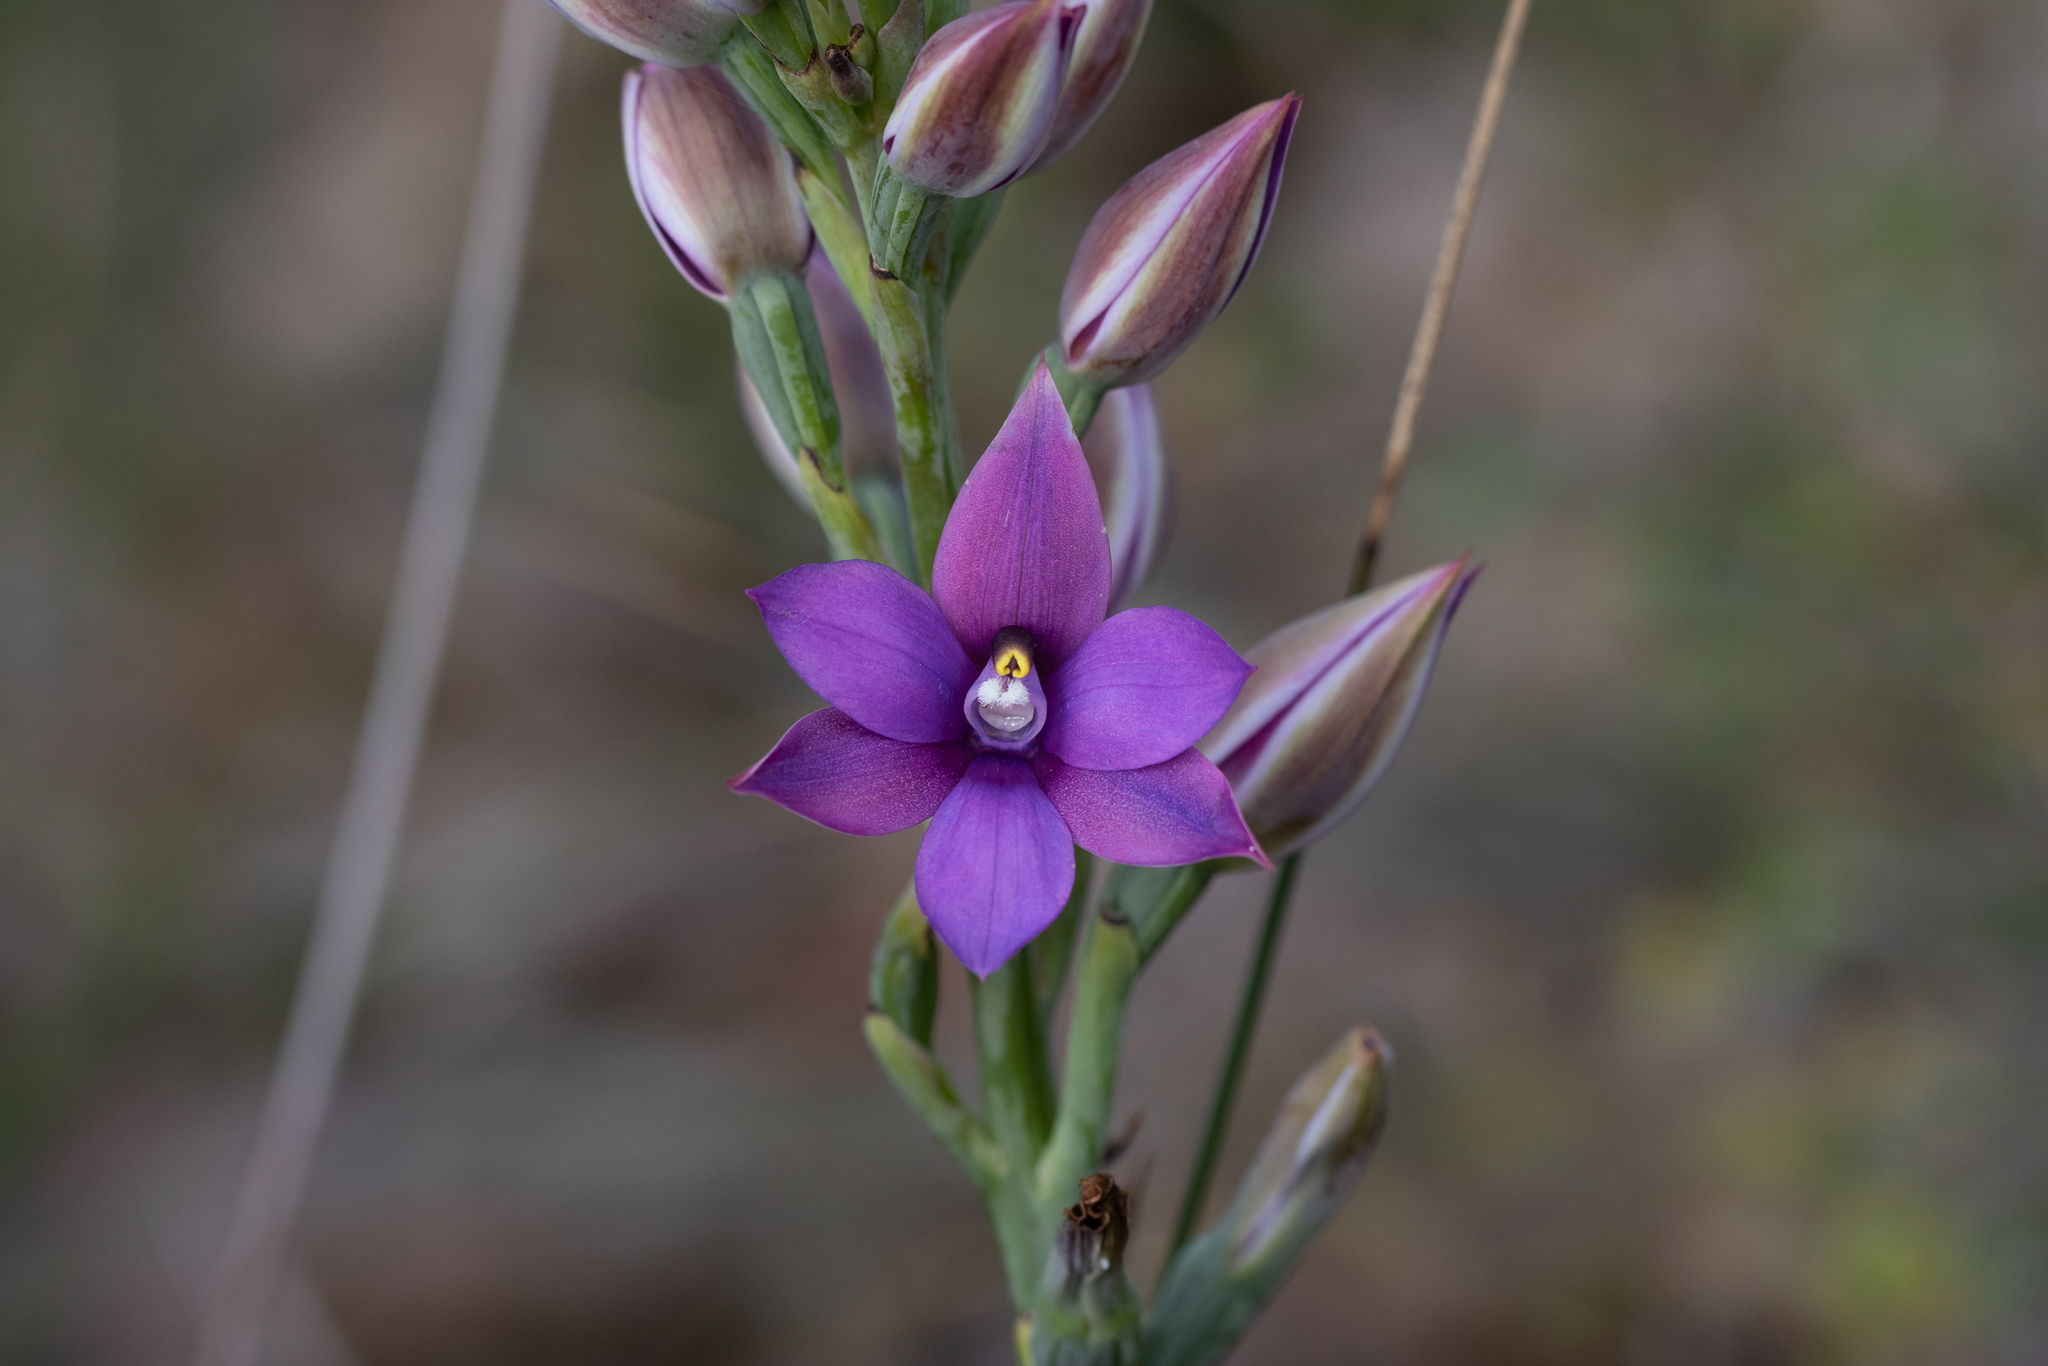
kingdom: Plantae
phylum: Tracheophyta
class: Liliopsida
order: Asparagales
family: Orchidaceae
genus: Thelymitra
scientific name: Thelymitra graminea
